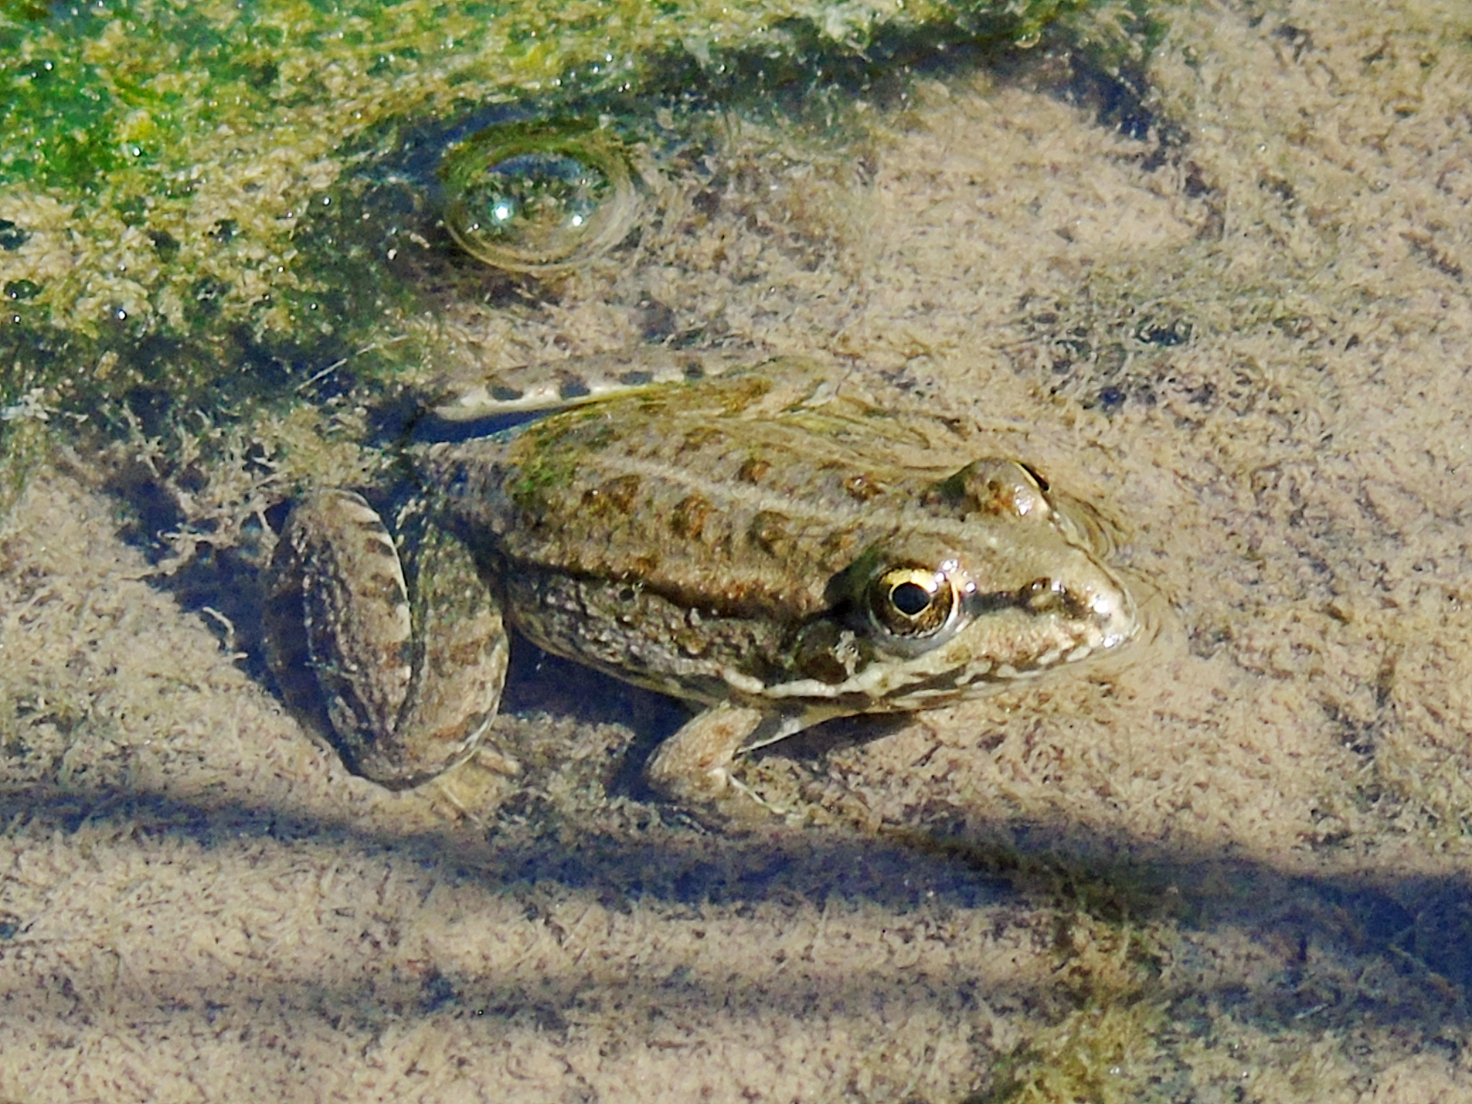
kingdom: Animalia
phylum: Chordata
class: Amphibia
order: Anura
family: Ranidae
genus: Pelophylax
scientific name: Pelophylax ridibundus
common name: Marsh frog
